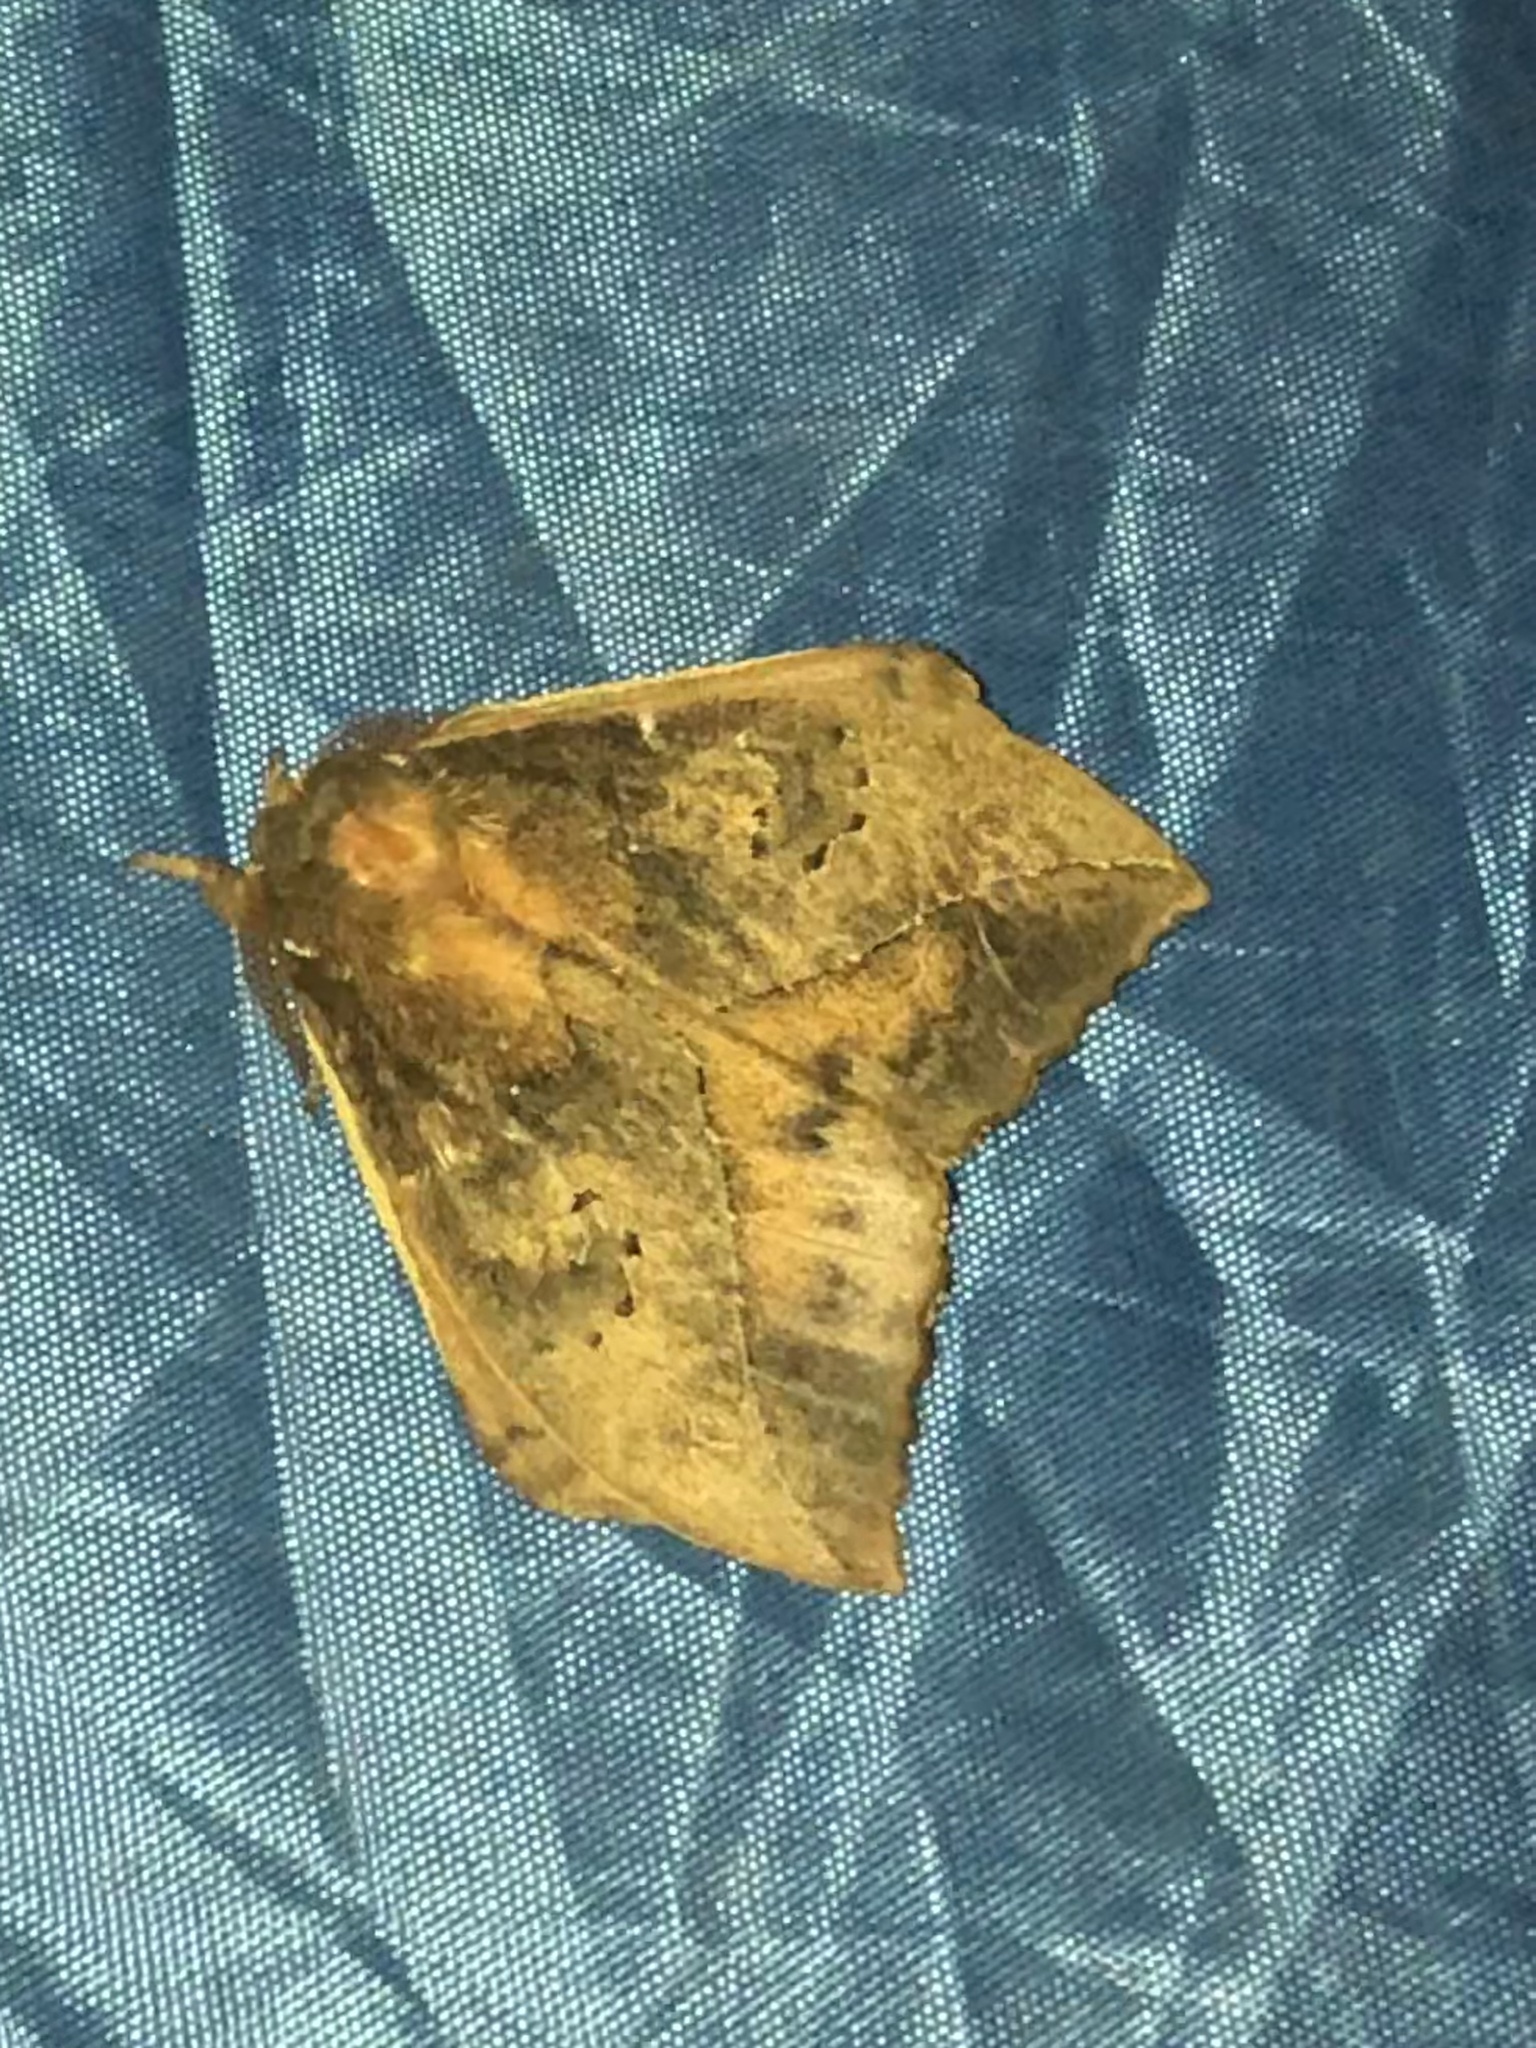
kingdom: Animalia
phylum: Arthropoda
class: Insecta
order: Lepidoptera
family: Saturniidae
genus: Pseudautomeris
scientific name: Pseudautomeris fimbridentata
